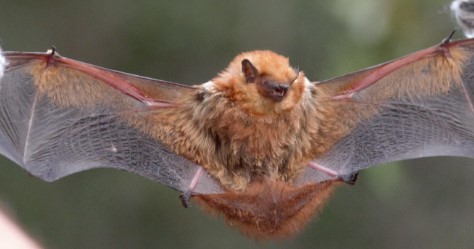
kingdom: Animalia
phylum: Chordata
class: Mammalia
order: Chiroptera
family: Vespertilionidae
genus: Lasiurus
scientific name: Lasiurus varius
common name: Cinnamon red bat
